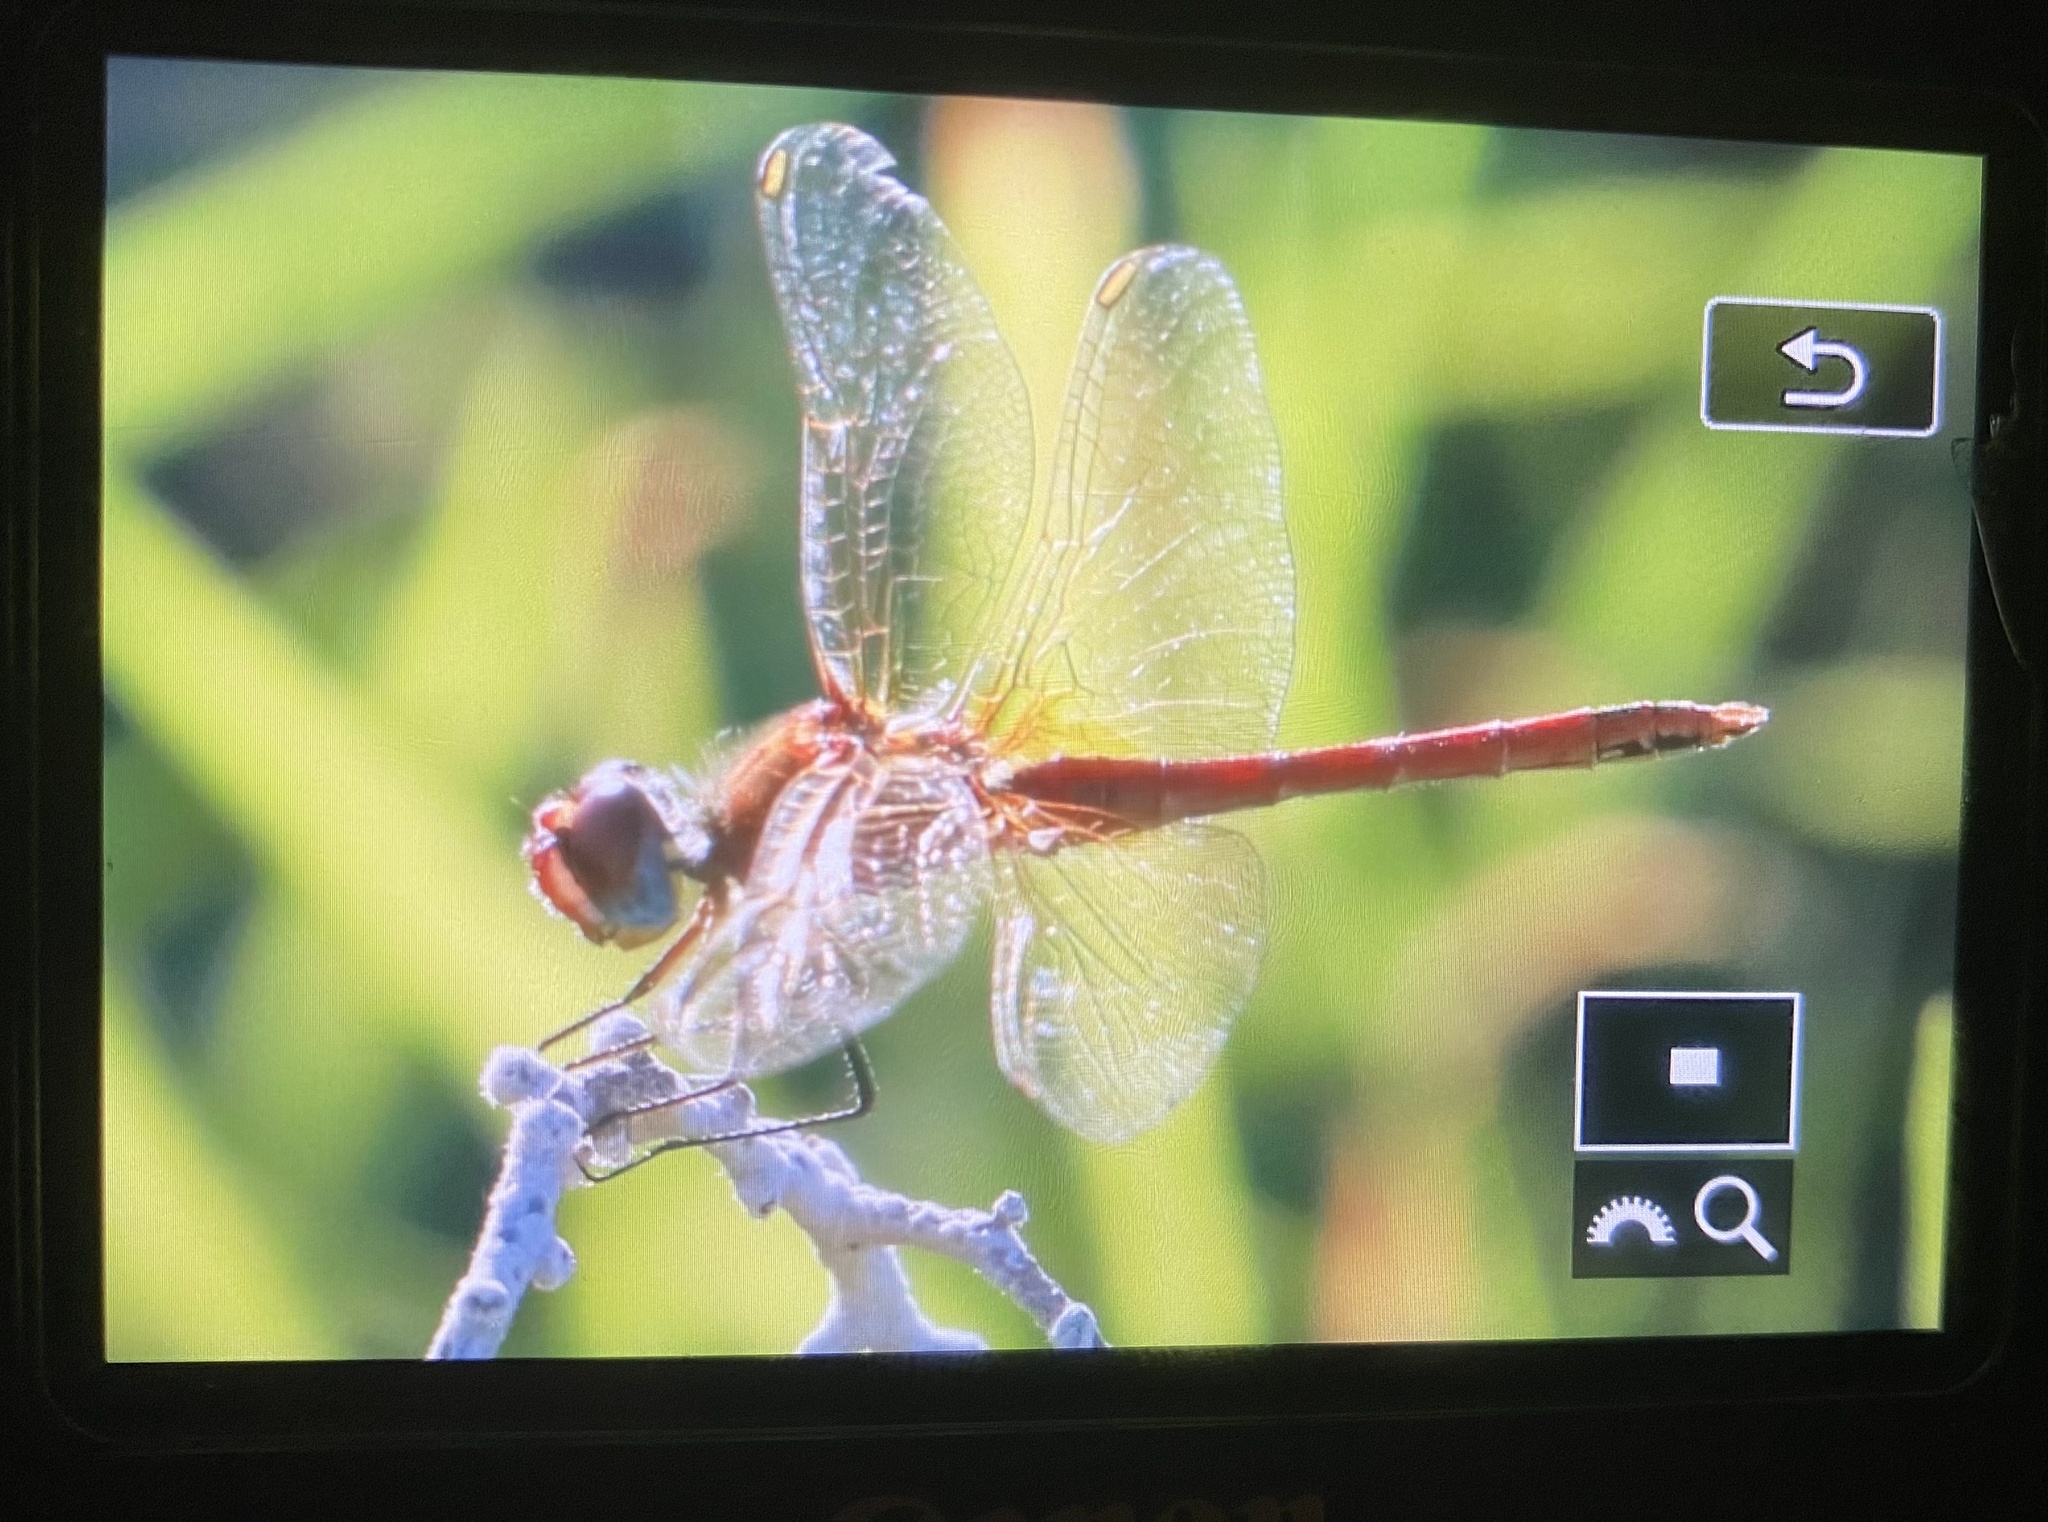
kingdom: Animalia
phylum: Arthropoda
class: Insecta
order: Odonata
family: Libellulidae
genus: Sympetrum
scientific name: Sympetrum fonscolombii
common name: Red-veined darter
